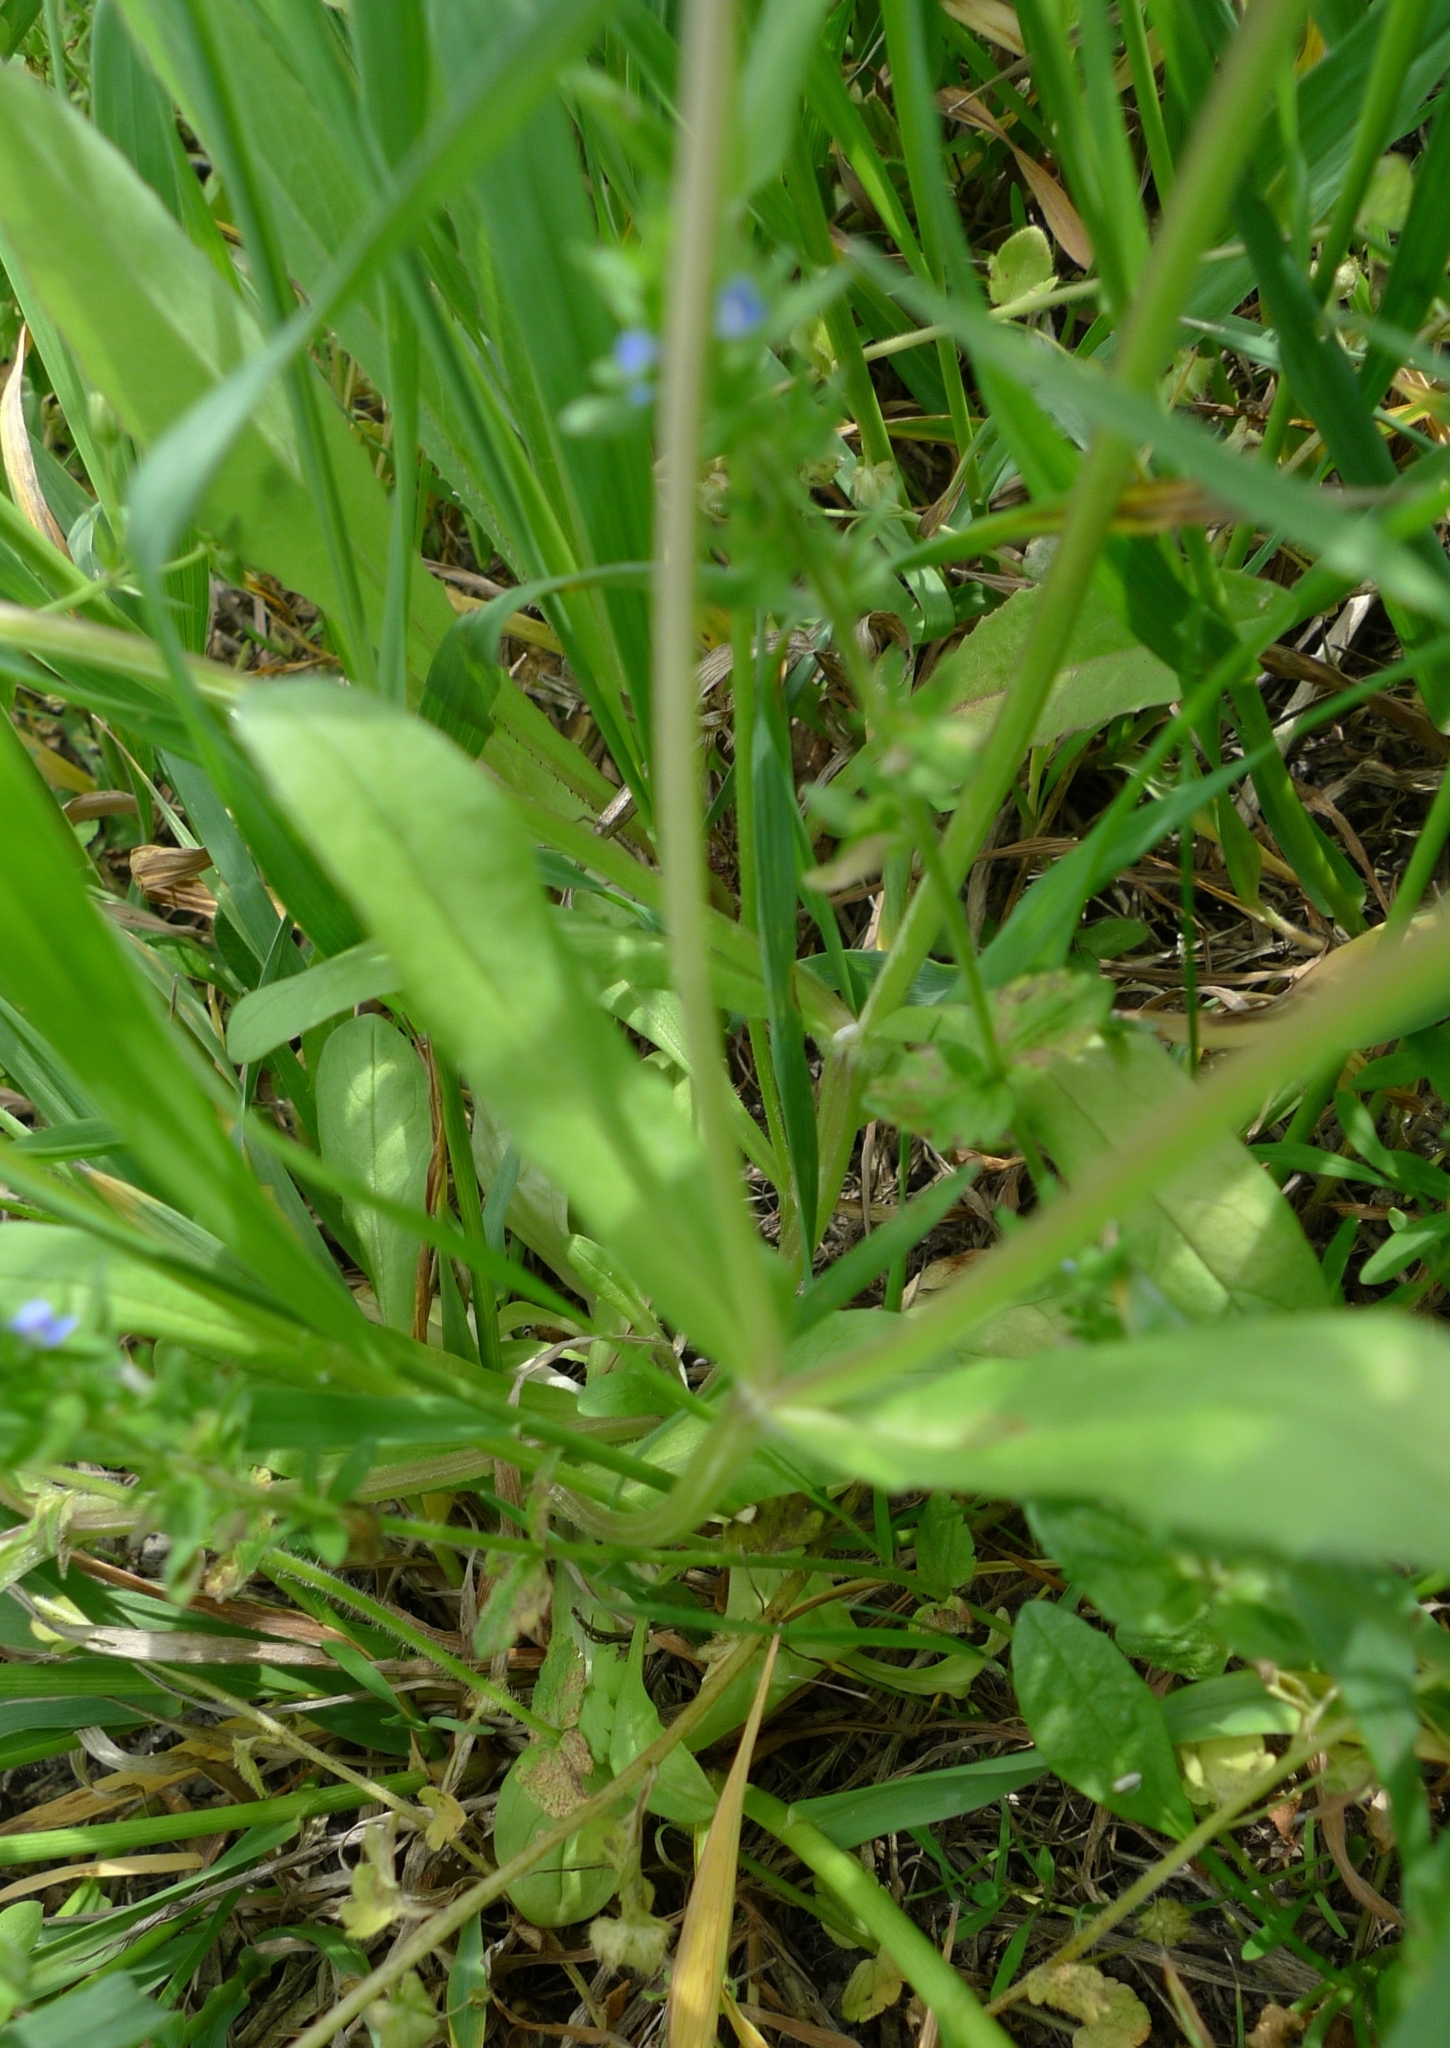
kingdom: Plantae
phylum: Tracheophyta
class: Magnoliopsida
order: Dipsacales
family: Caprifoliaceae
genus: Valerianella
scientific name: Valerianella locusta
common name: Common cornsalad
